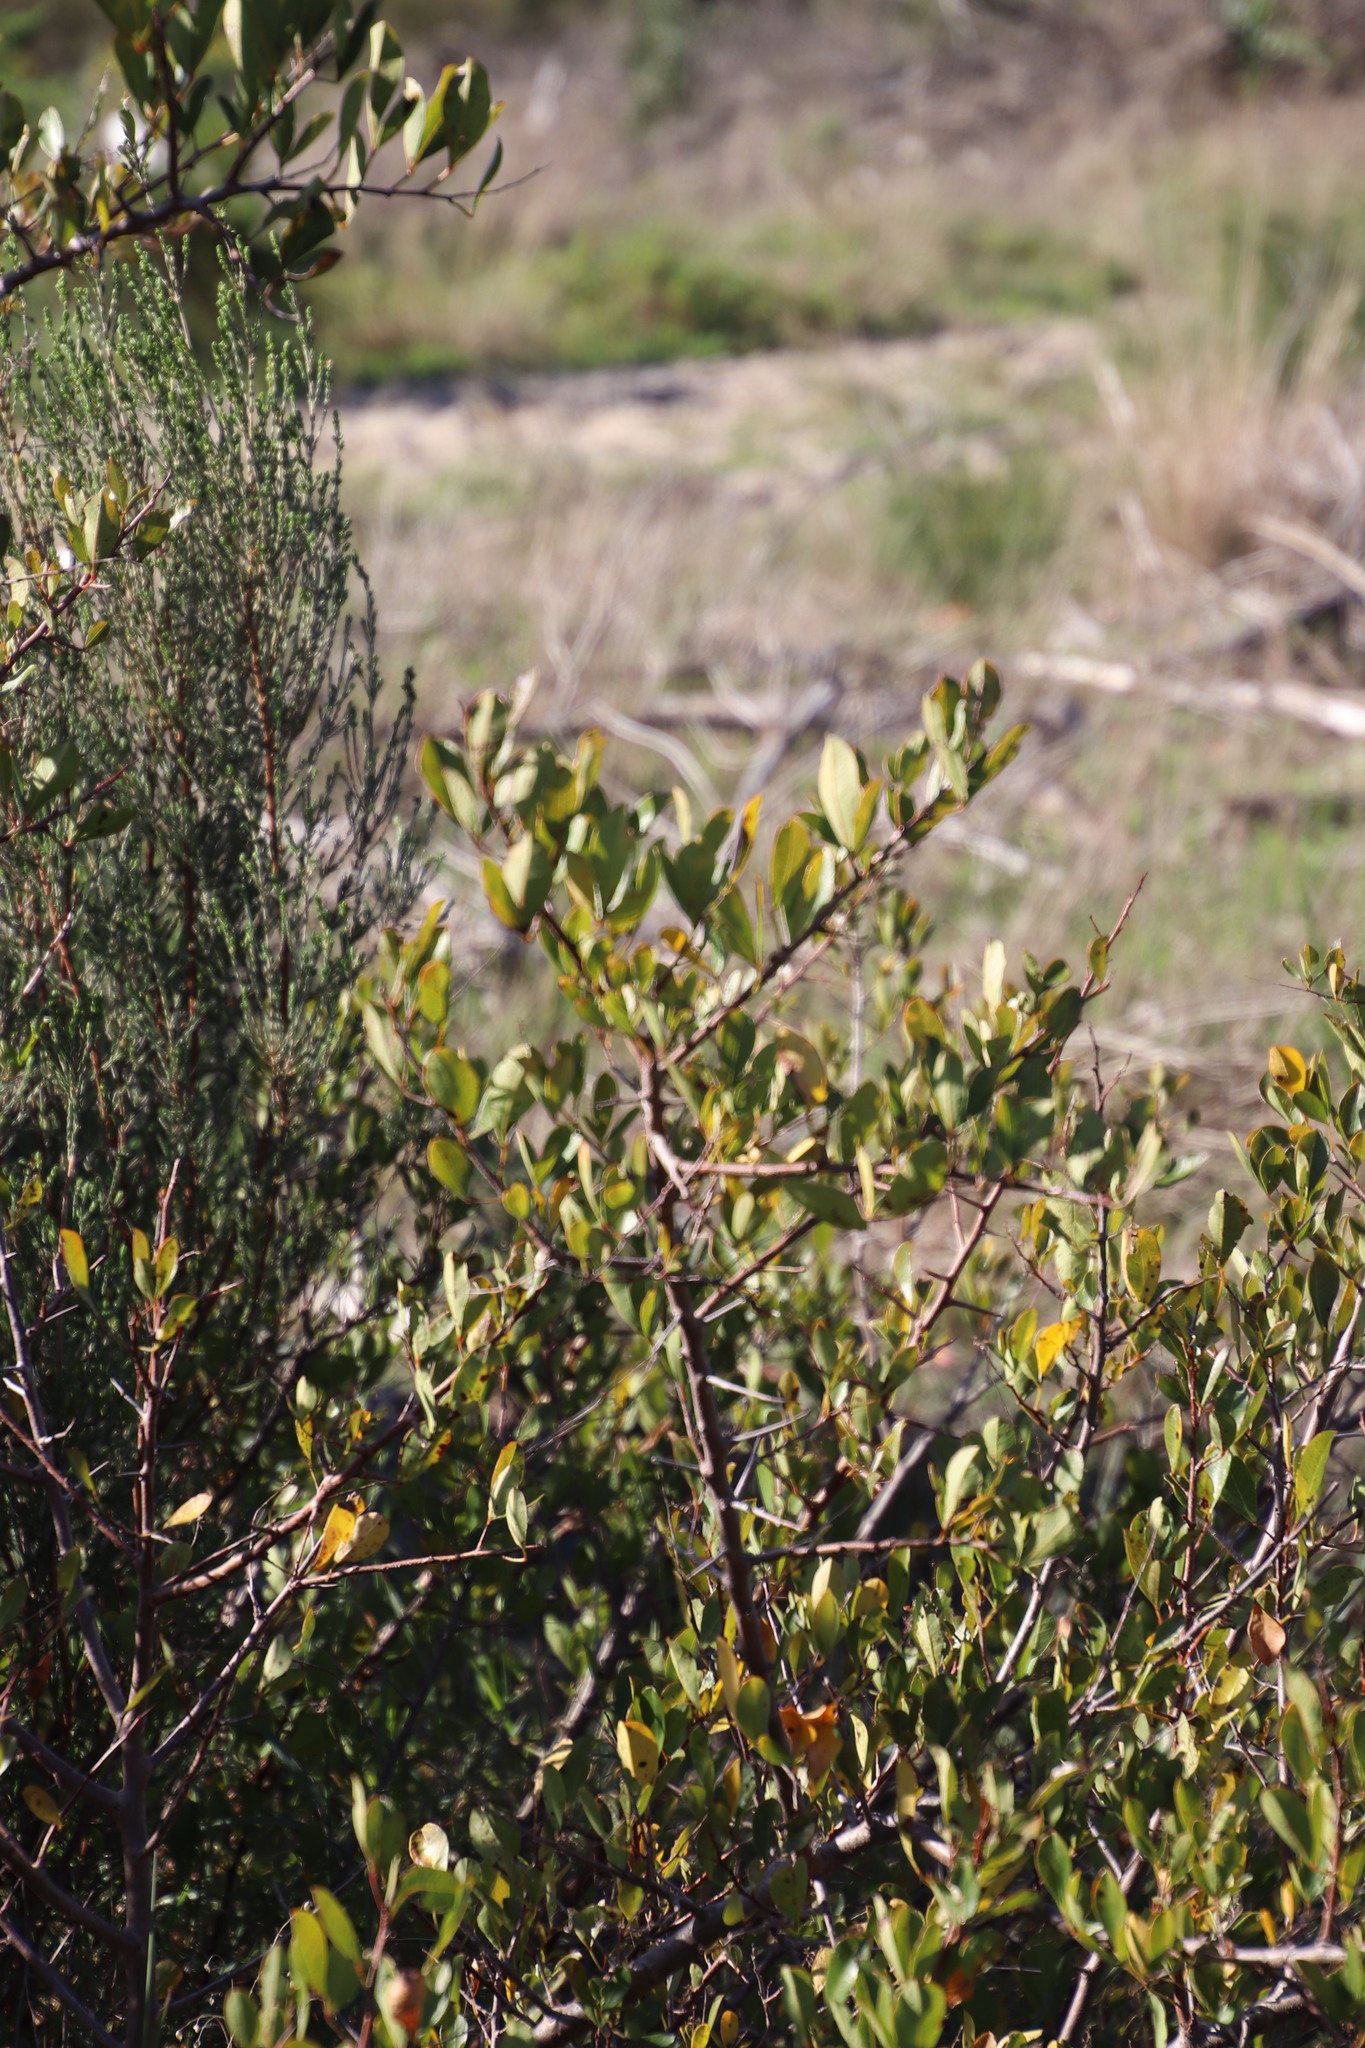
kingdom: Plantae
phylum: Tracheophyta
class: Magnoliopsida
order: Sapindales
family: Anacardiaceae
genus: Searsia
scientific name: Searsia laevigata
